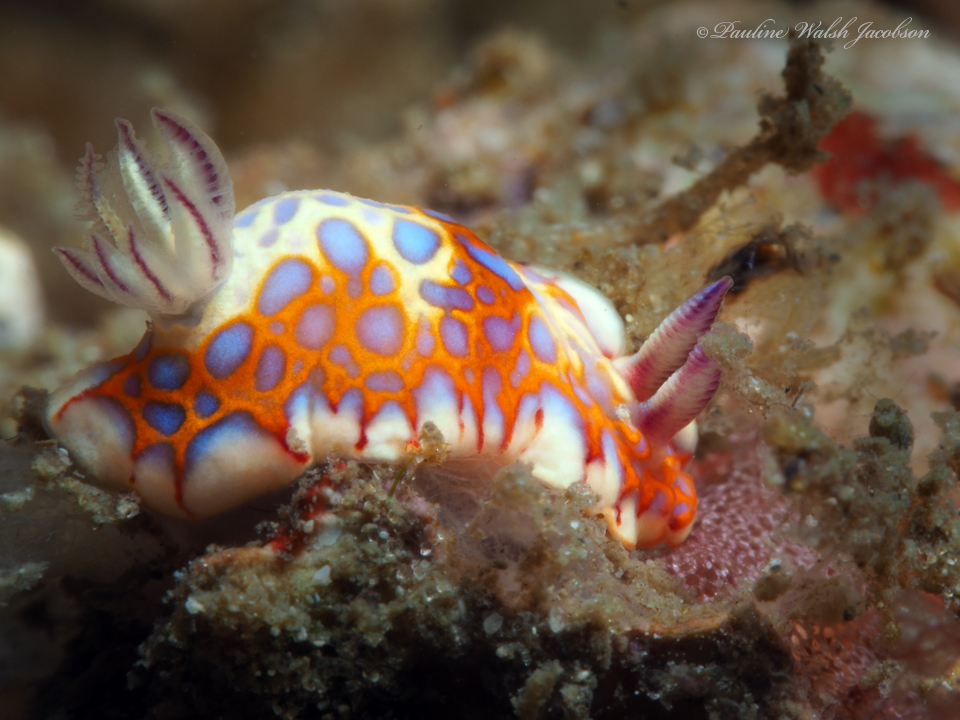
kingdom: Animalia
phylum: Mollusca
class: Gastropoda
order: Nudibranchia
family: Chromodorididae
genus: Felimida
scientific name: Felimida binza
